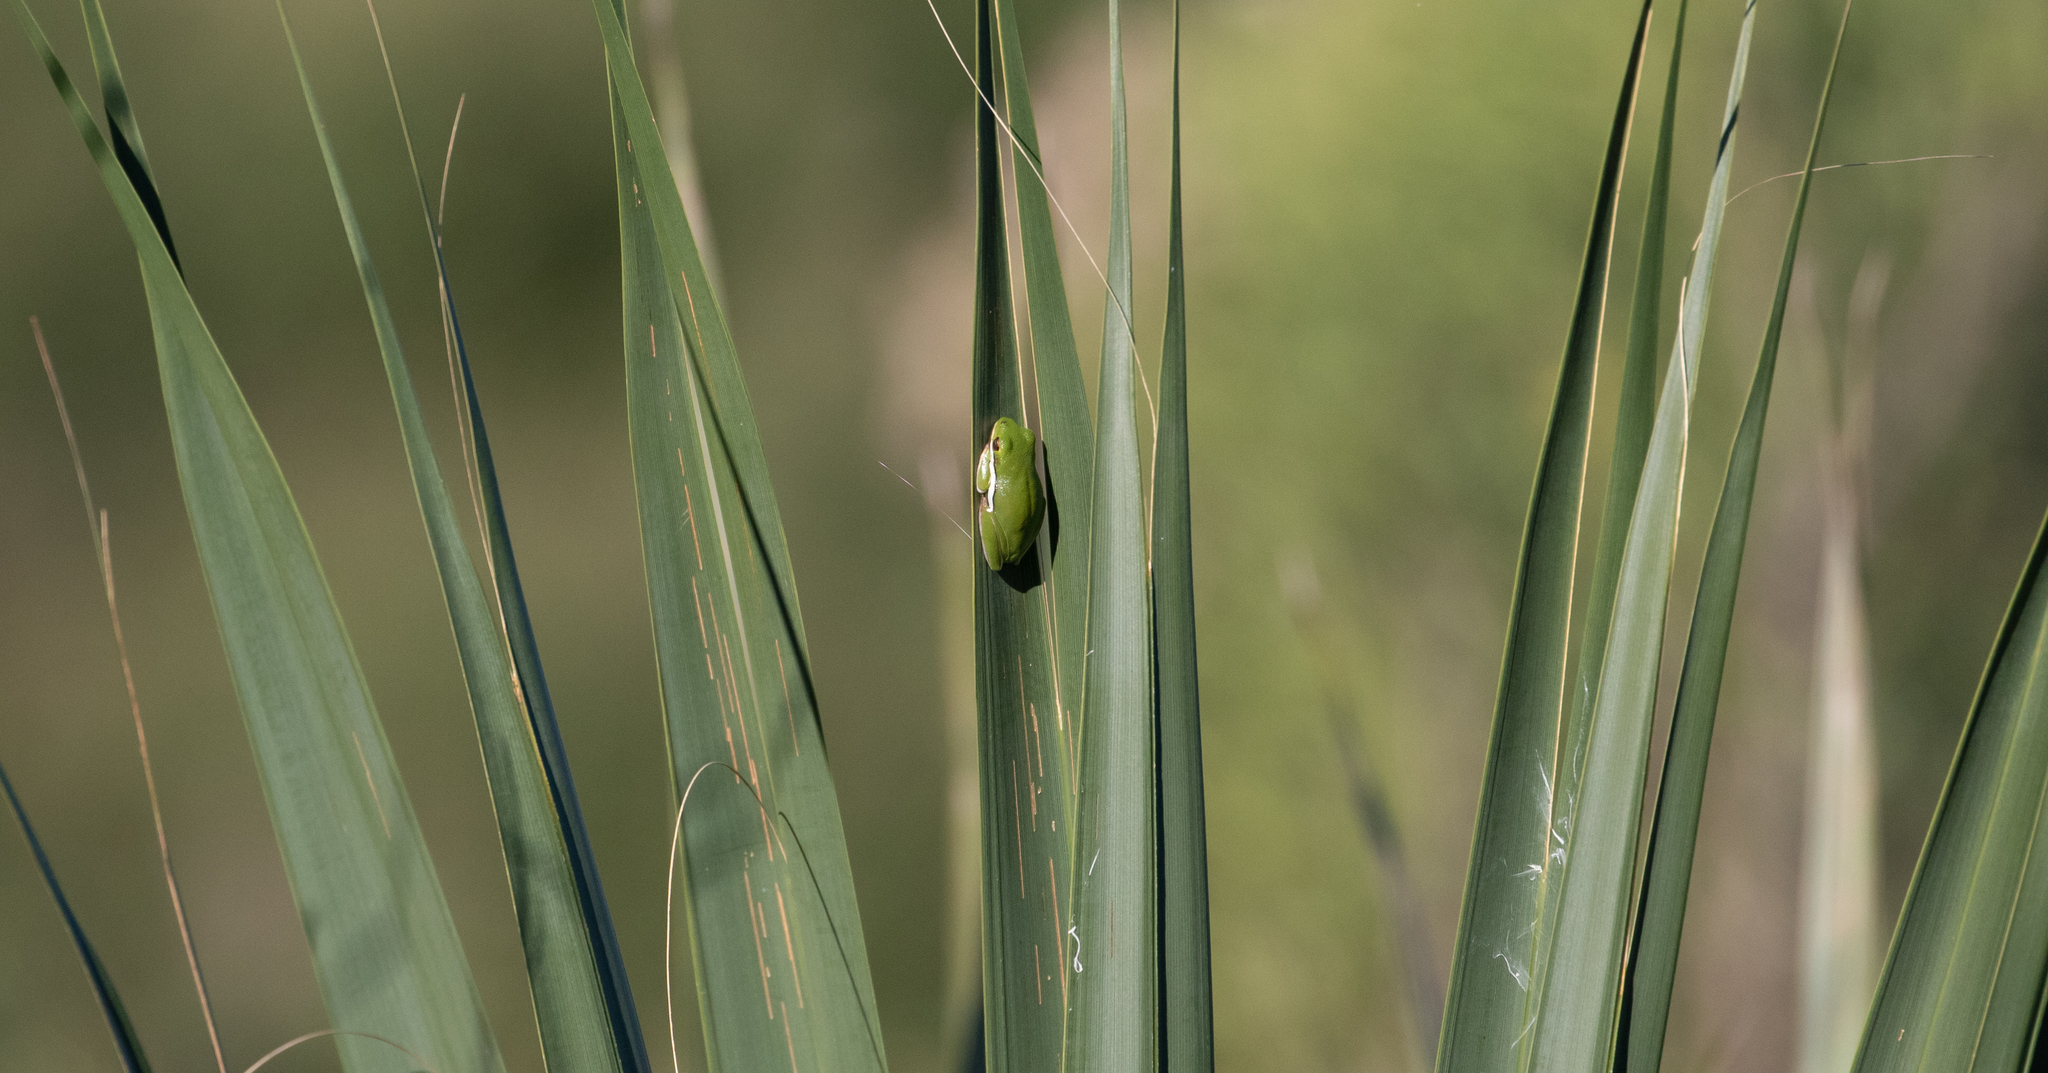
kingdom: Animalia
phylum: Chordata
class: Amphibia
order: Anura
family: Hylidae
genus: Dryophytes
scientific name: Dryophytes cinereus
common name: Green treefrog
